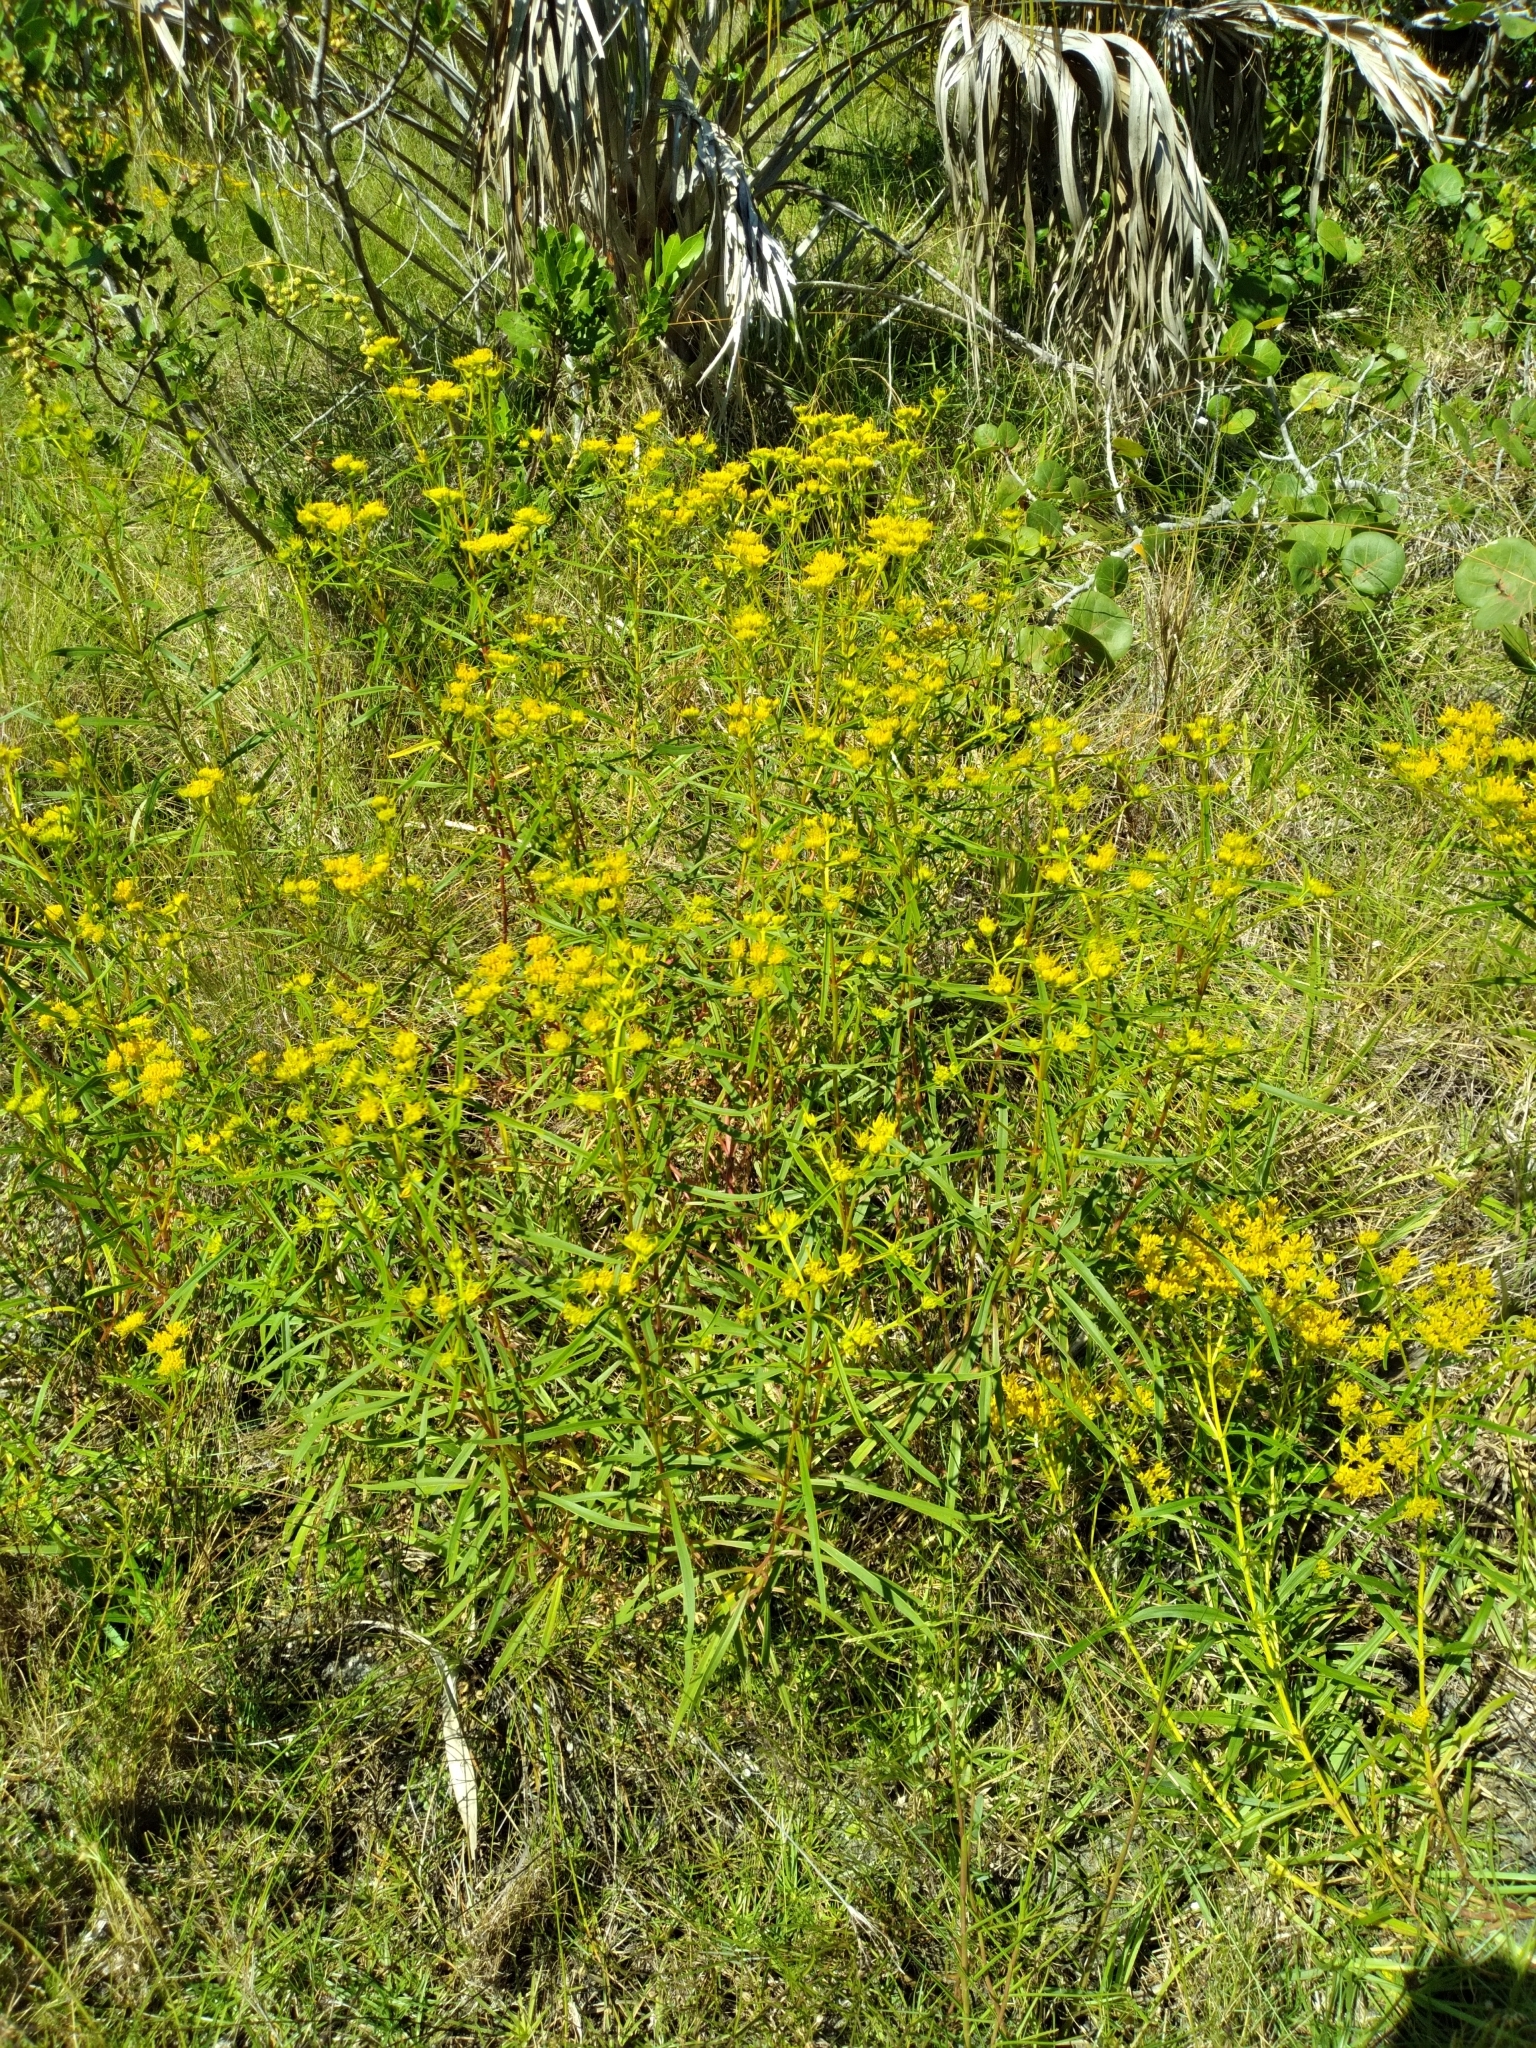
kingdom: Plantae
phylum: Tracheophyta
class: Magnoliopsida
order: Asterales
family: Asteraceae
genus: Flaveria
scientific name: Flaveria floridana
